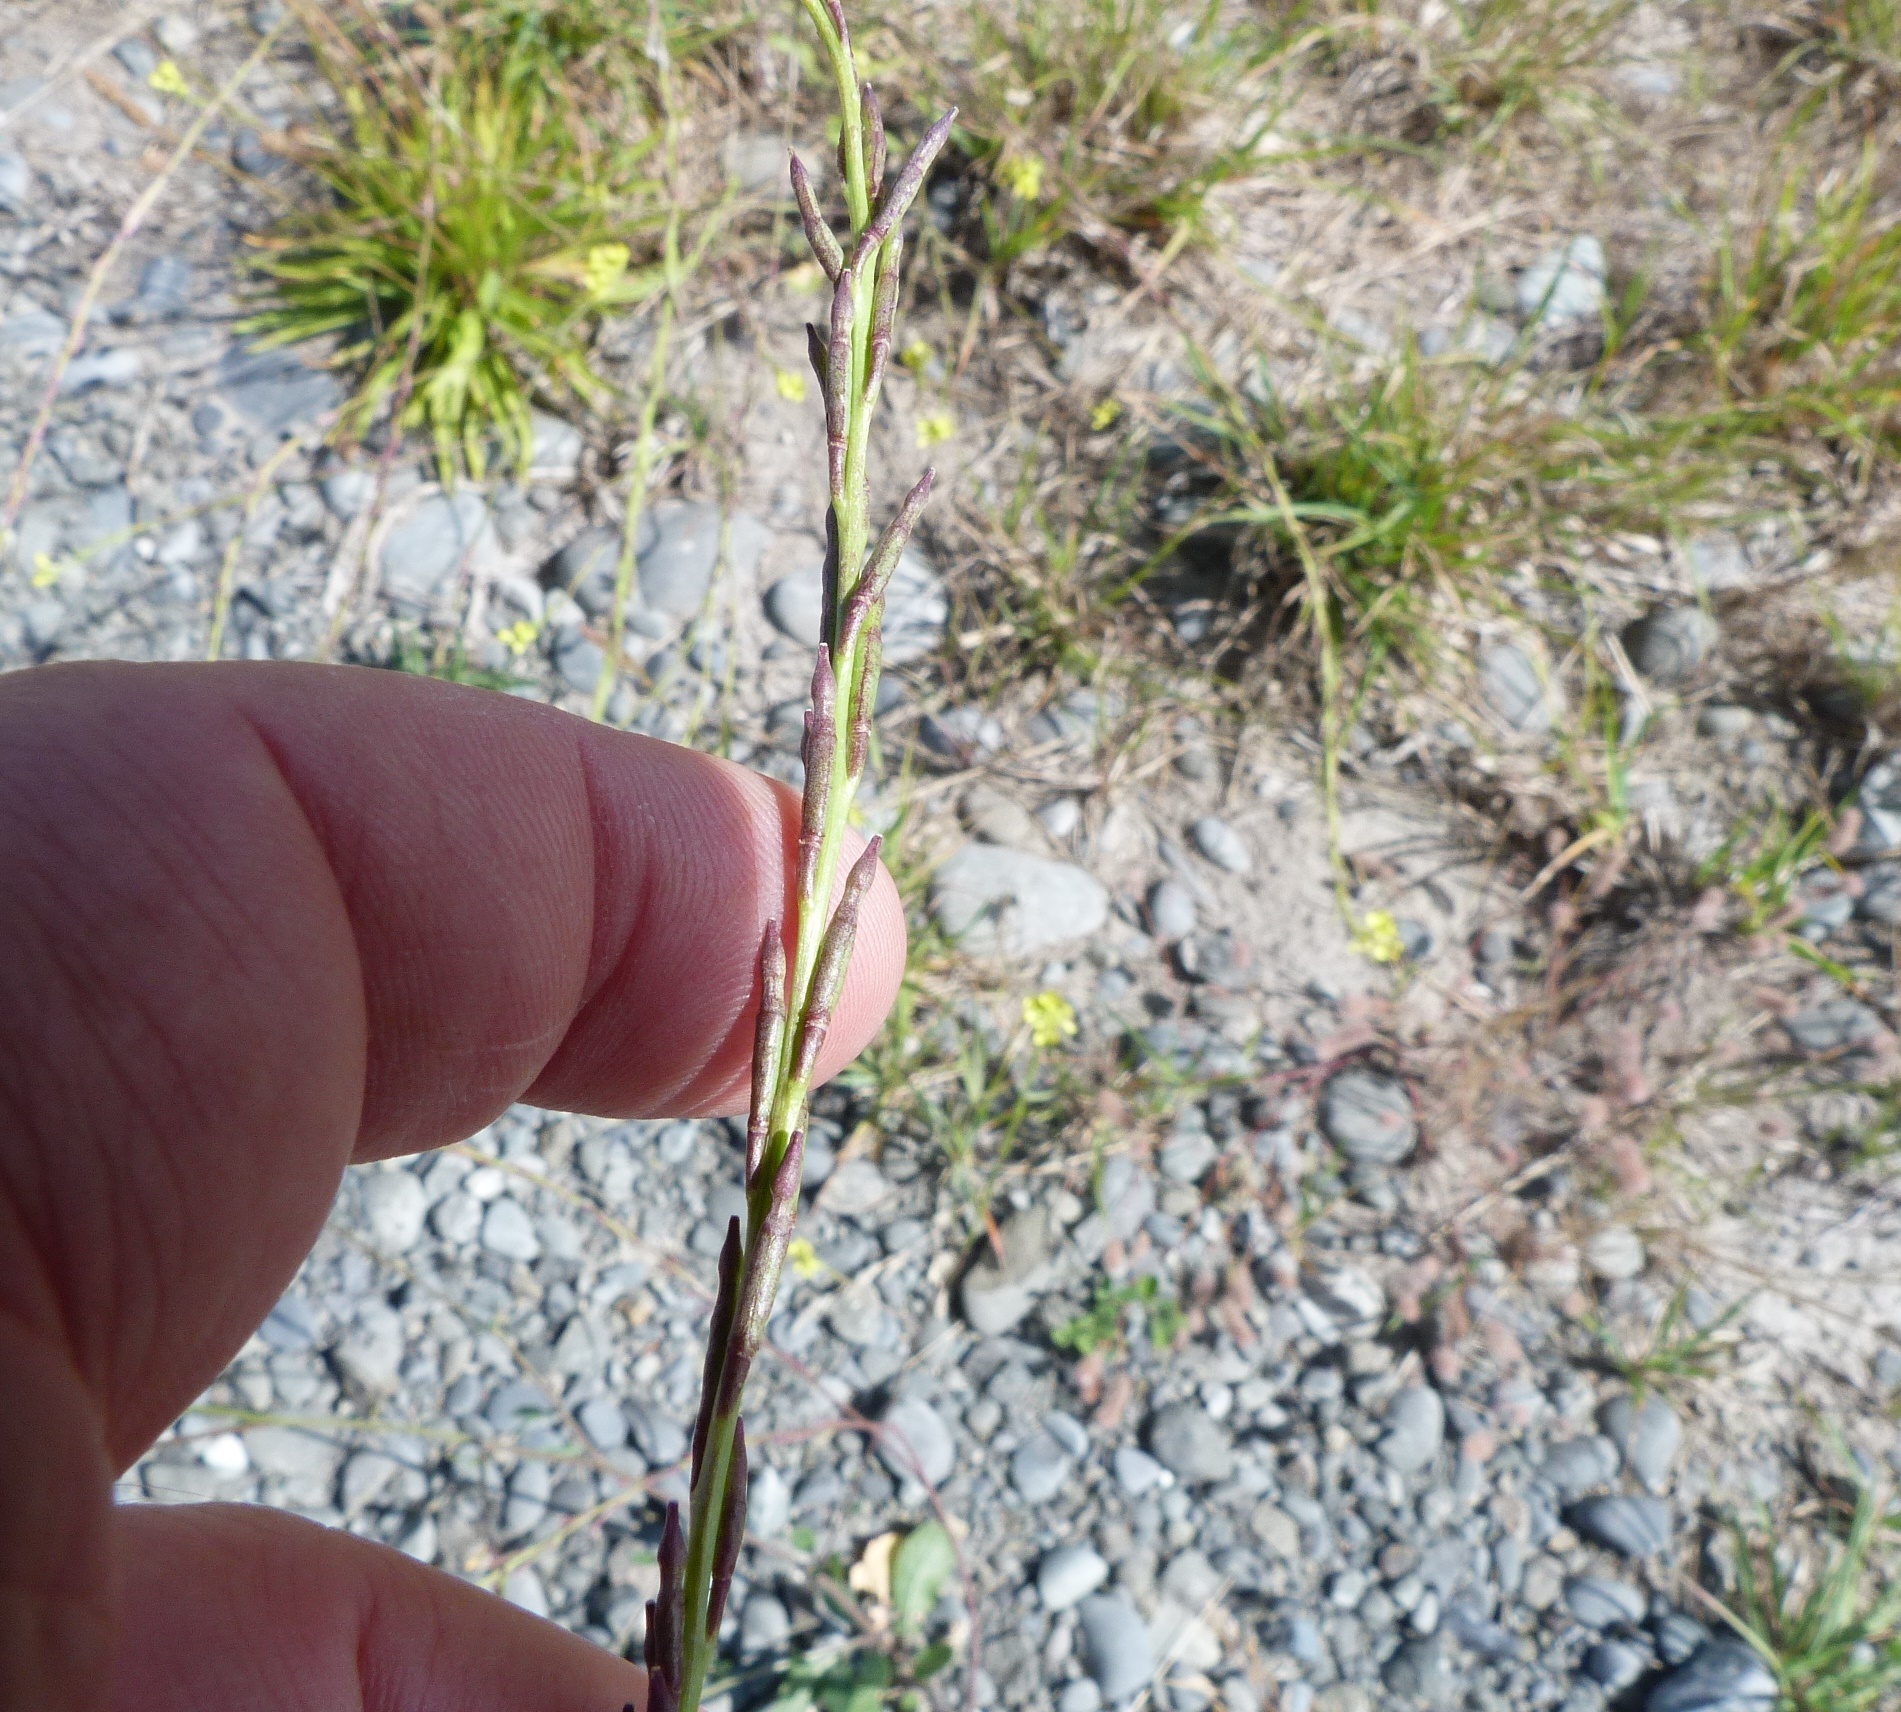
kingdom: Plantae
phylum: Tracheophyta
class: Magnoliopsida
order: Brassicales
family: Brassicaceae
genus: Sisymbrium
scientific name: Sisymbrium officinale
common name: Hedge mustard
